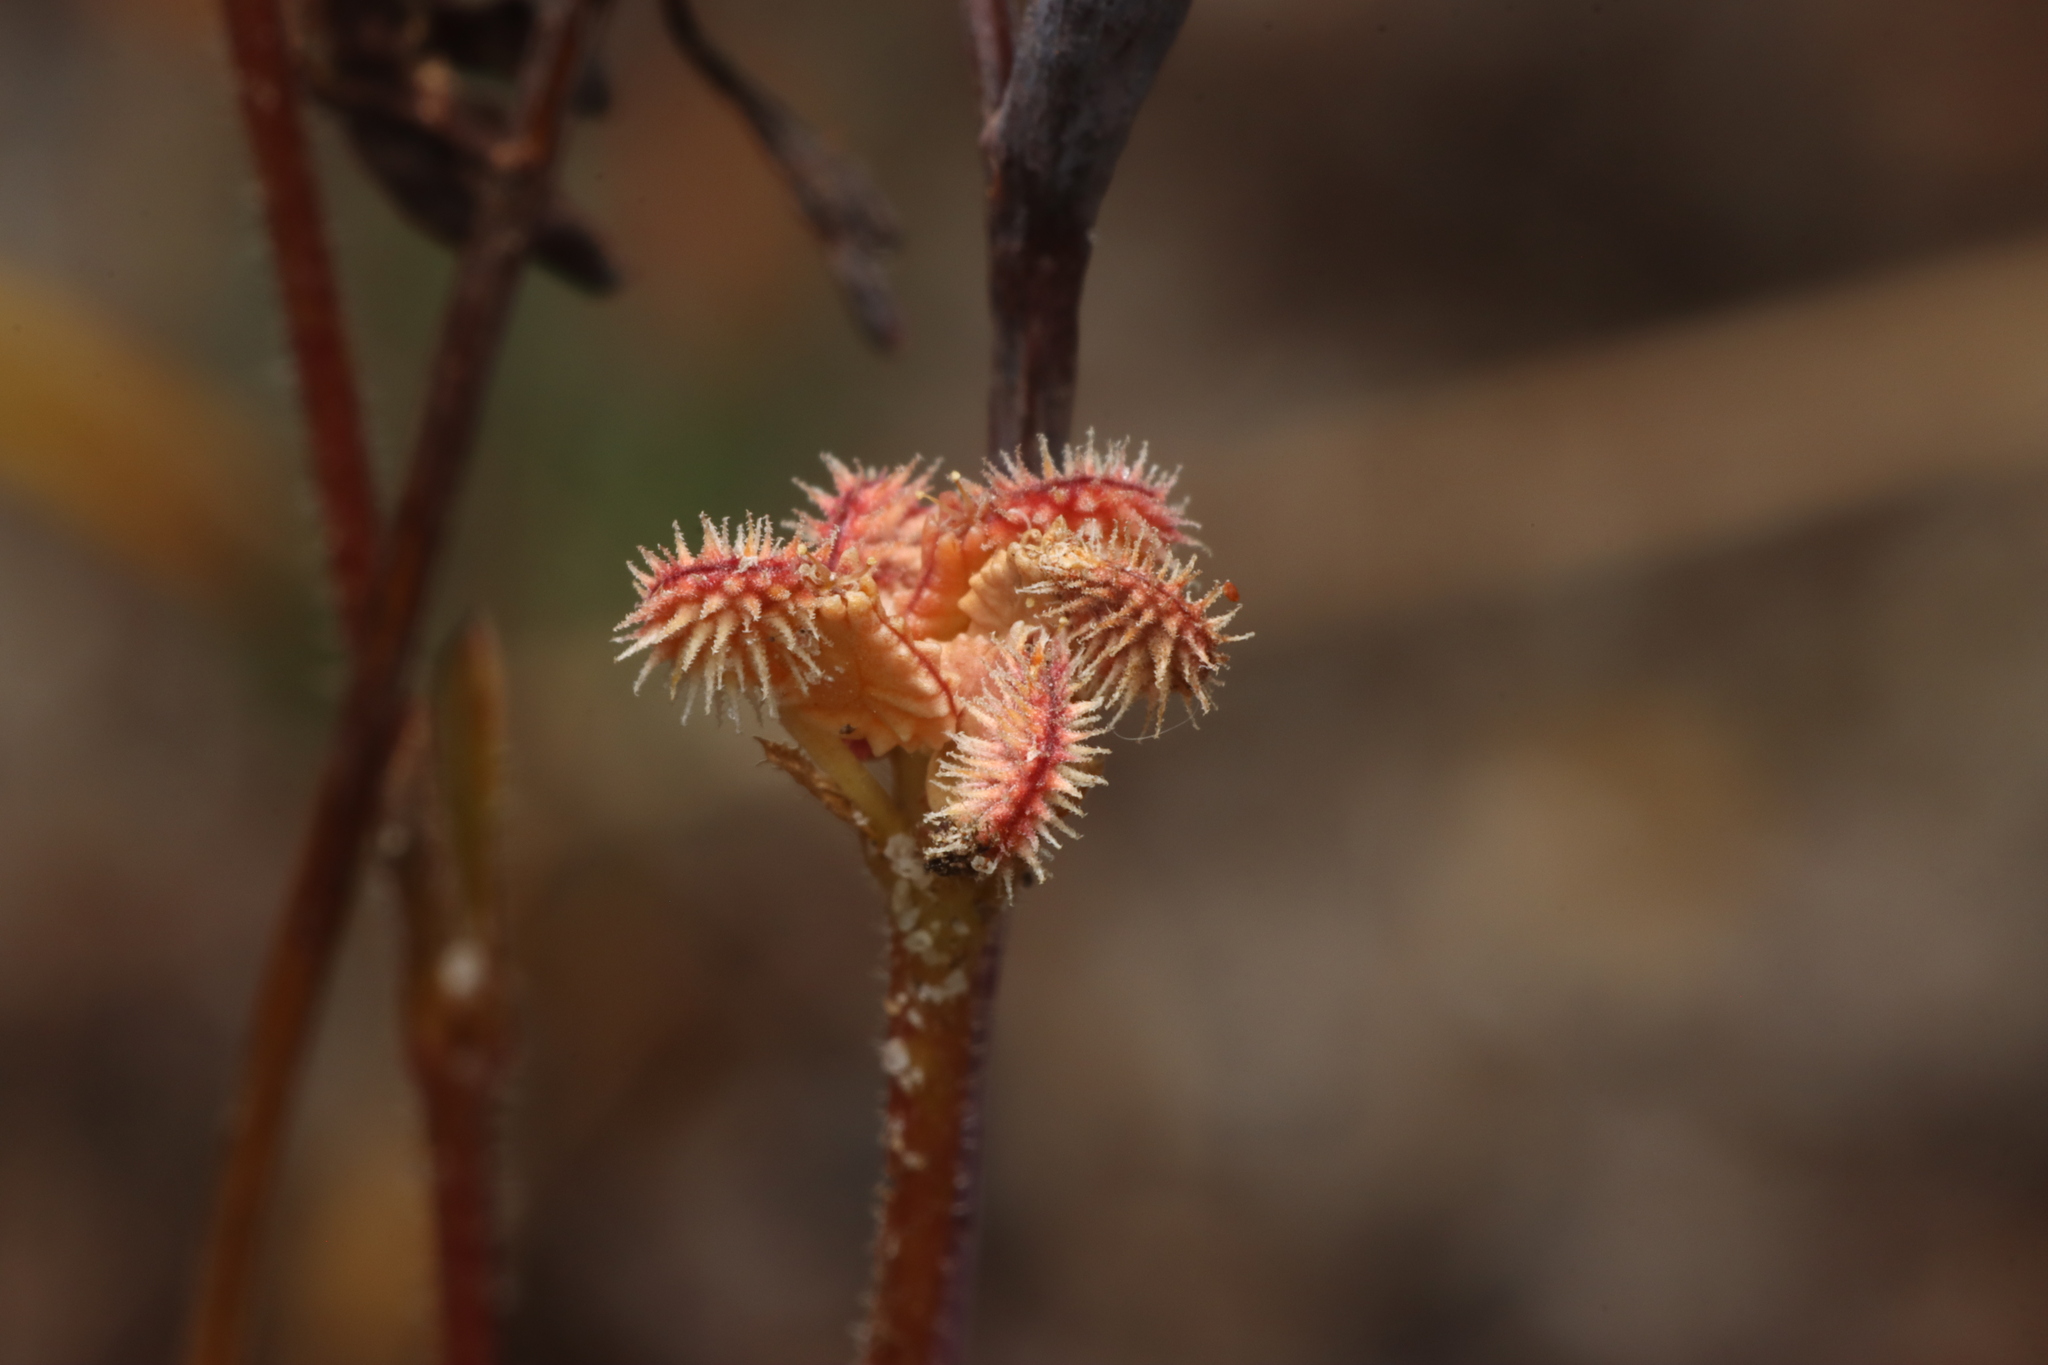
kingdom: Plantae
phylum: Tracheophyta
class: Magnoliopsida
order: Apiales
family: Araliaceae
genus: Trachymene
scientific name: Trachymene pilosa
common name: Dwarf trachymene
